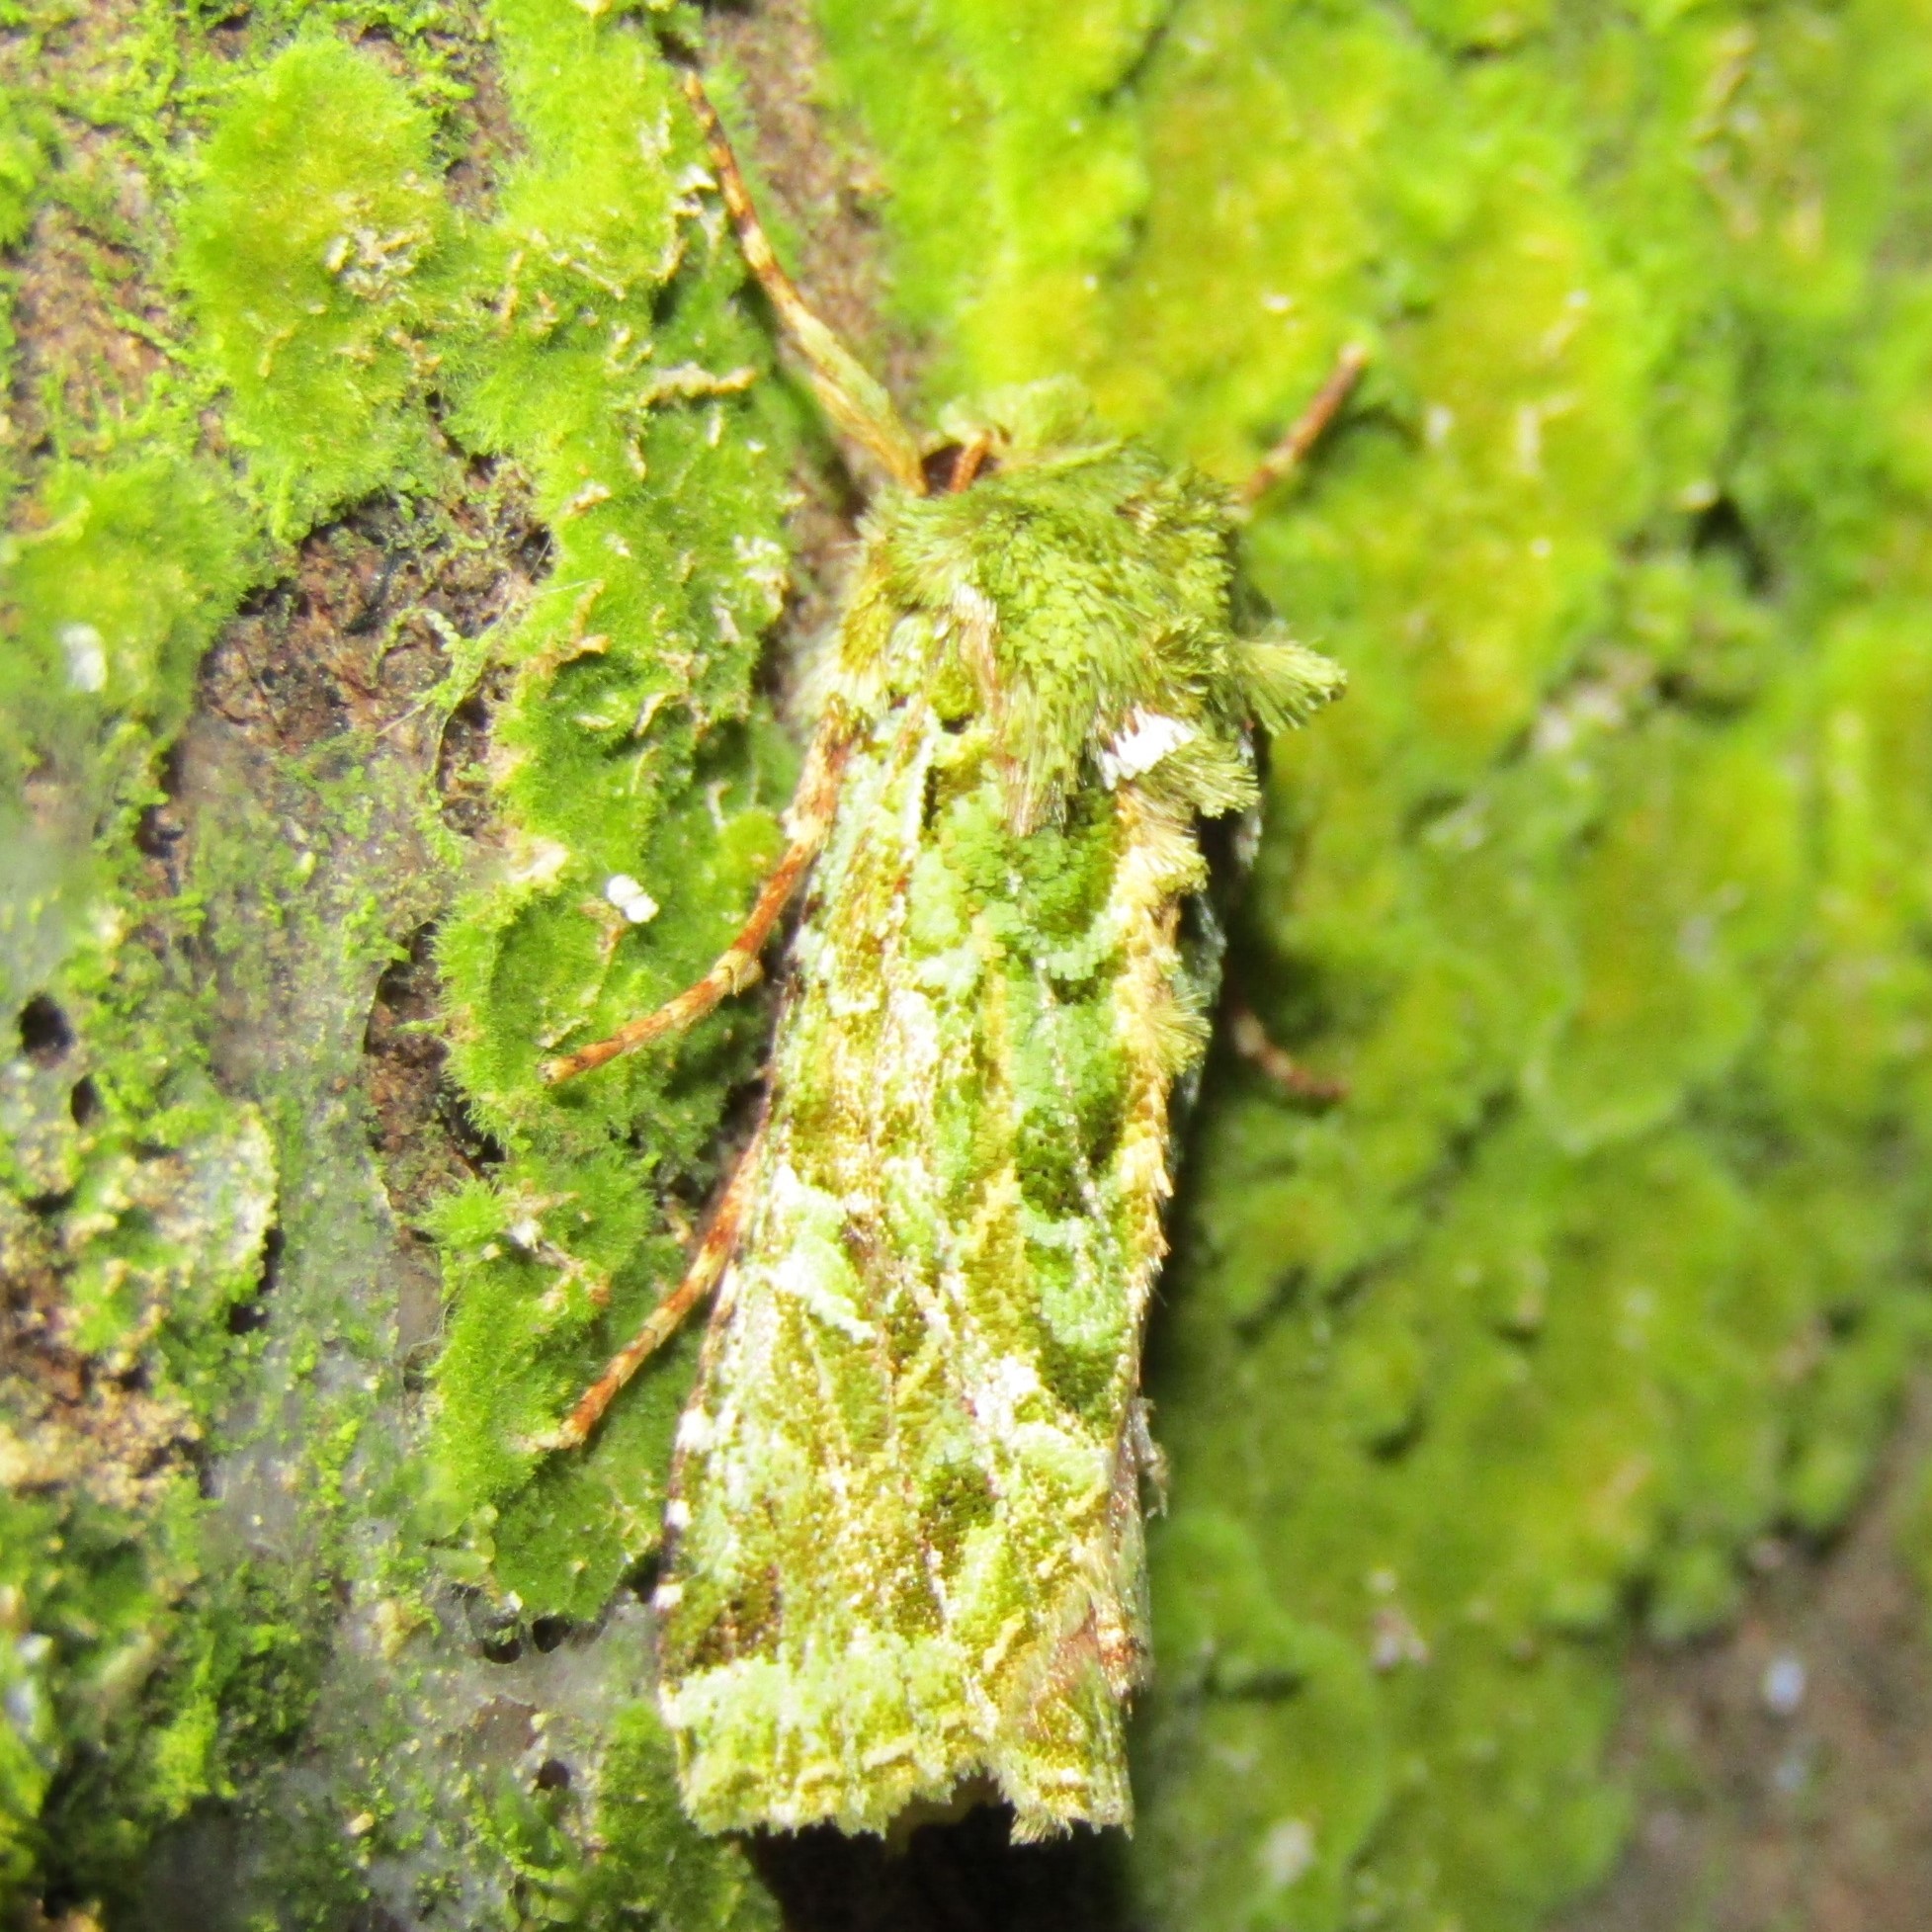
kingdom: Animalia
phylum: Arthropoda
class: Insecta
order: Lepidoptera
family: Noctuidae
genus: Feredayia
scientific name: Feredayia grammosa
